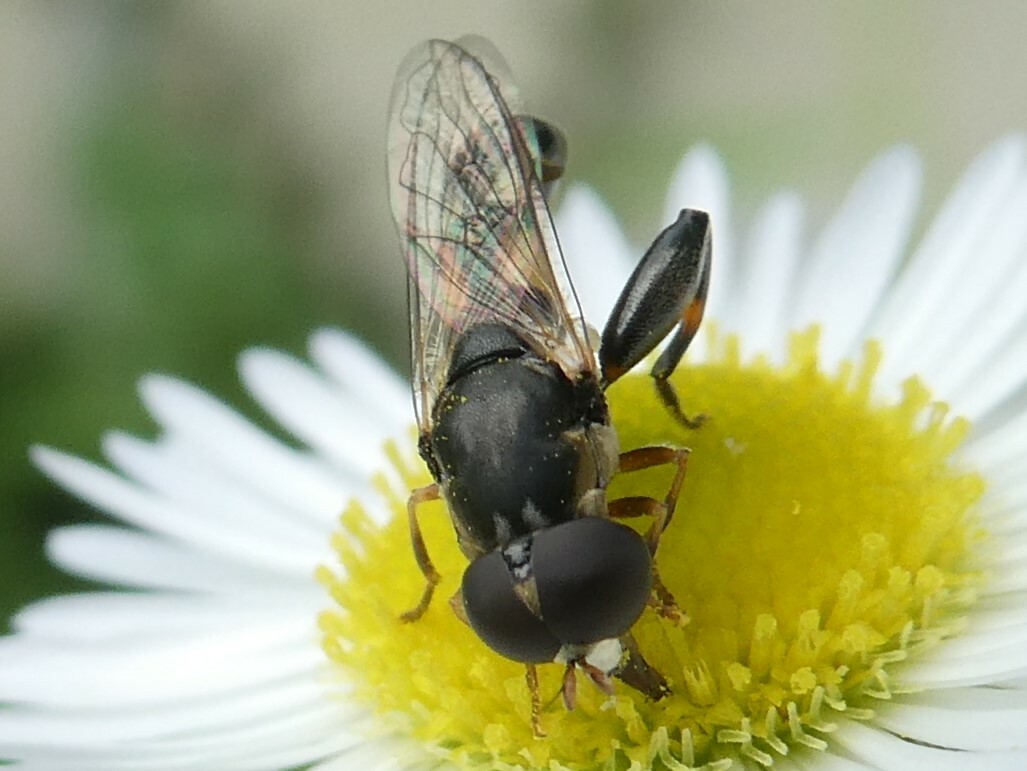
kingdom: Animalia
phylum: Arthropoda
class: Insecta
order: Diptera
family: Syrphidae
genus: Syritta
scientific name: Syritta pipiens
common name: Hover fly
